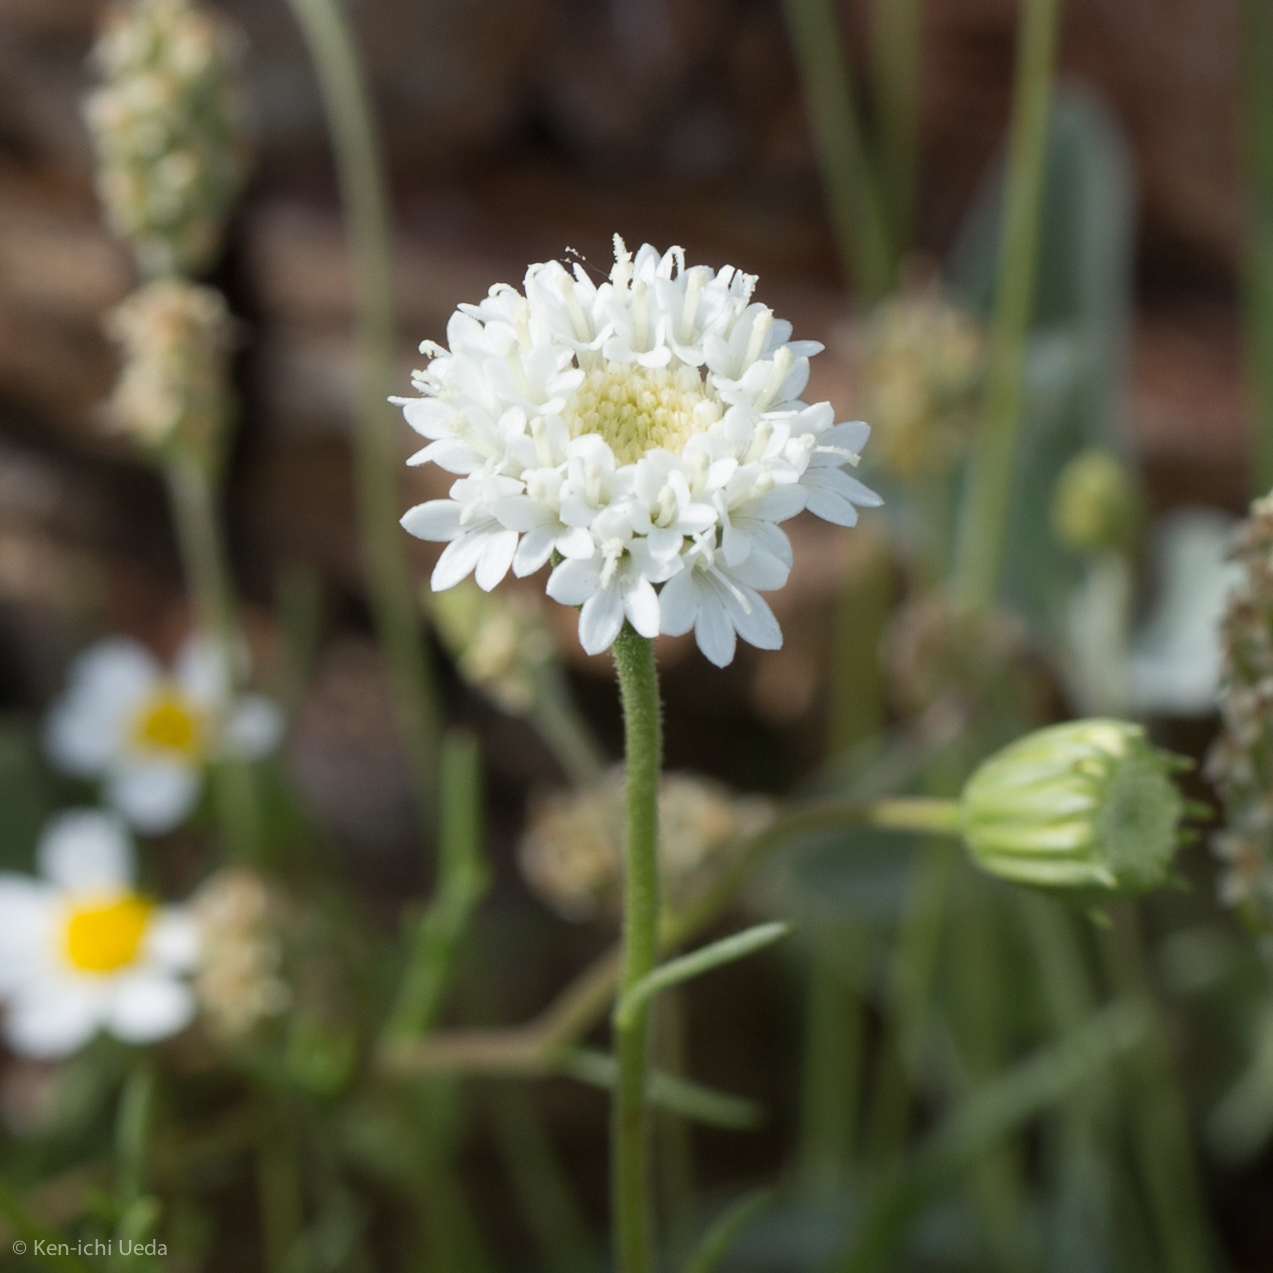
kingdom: Plantae
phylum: Tracheophyta
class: Magnoliopsida
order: Asterales
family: Asteraceae
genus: Chaenactis
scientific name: Chaenactis fremontii
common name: Fremont pincushion
